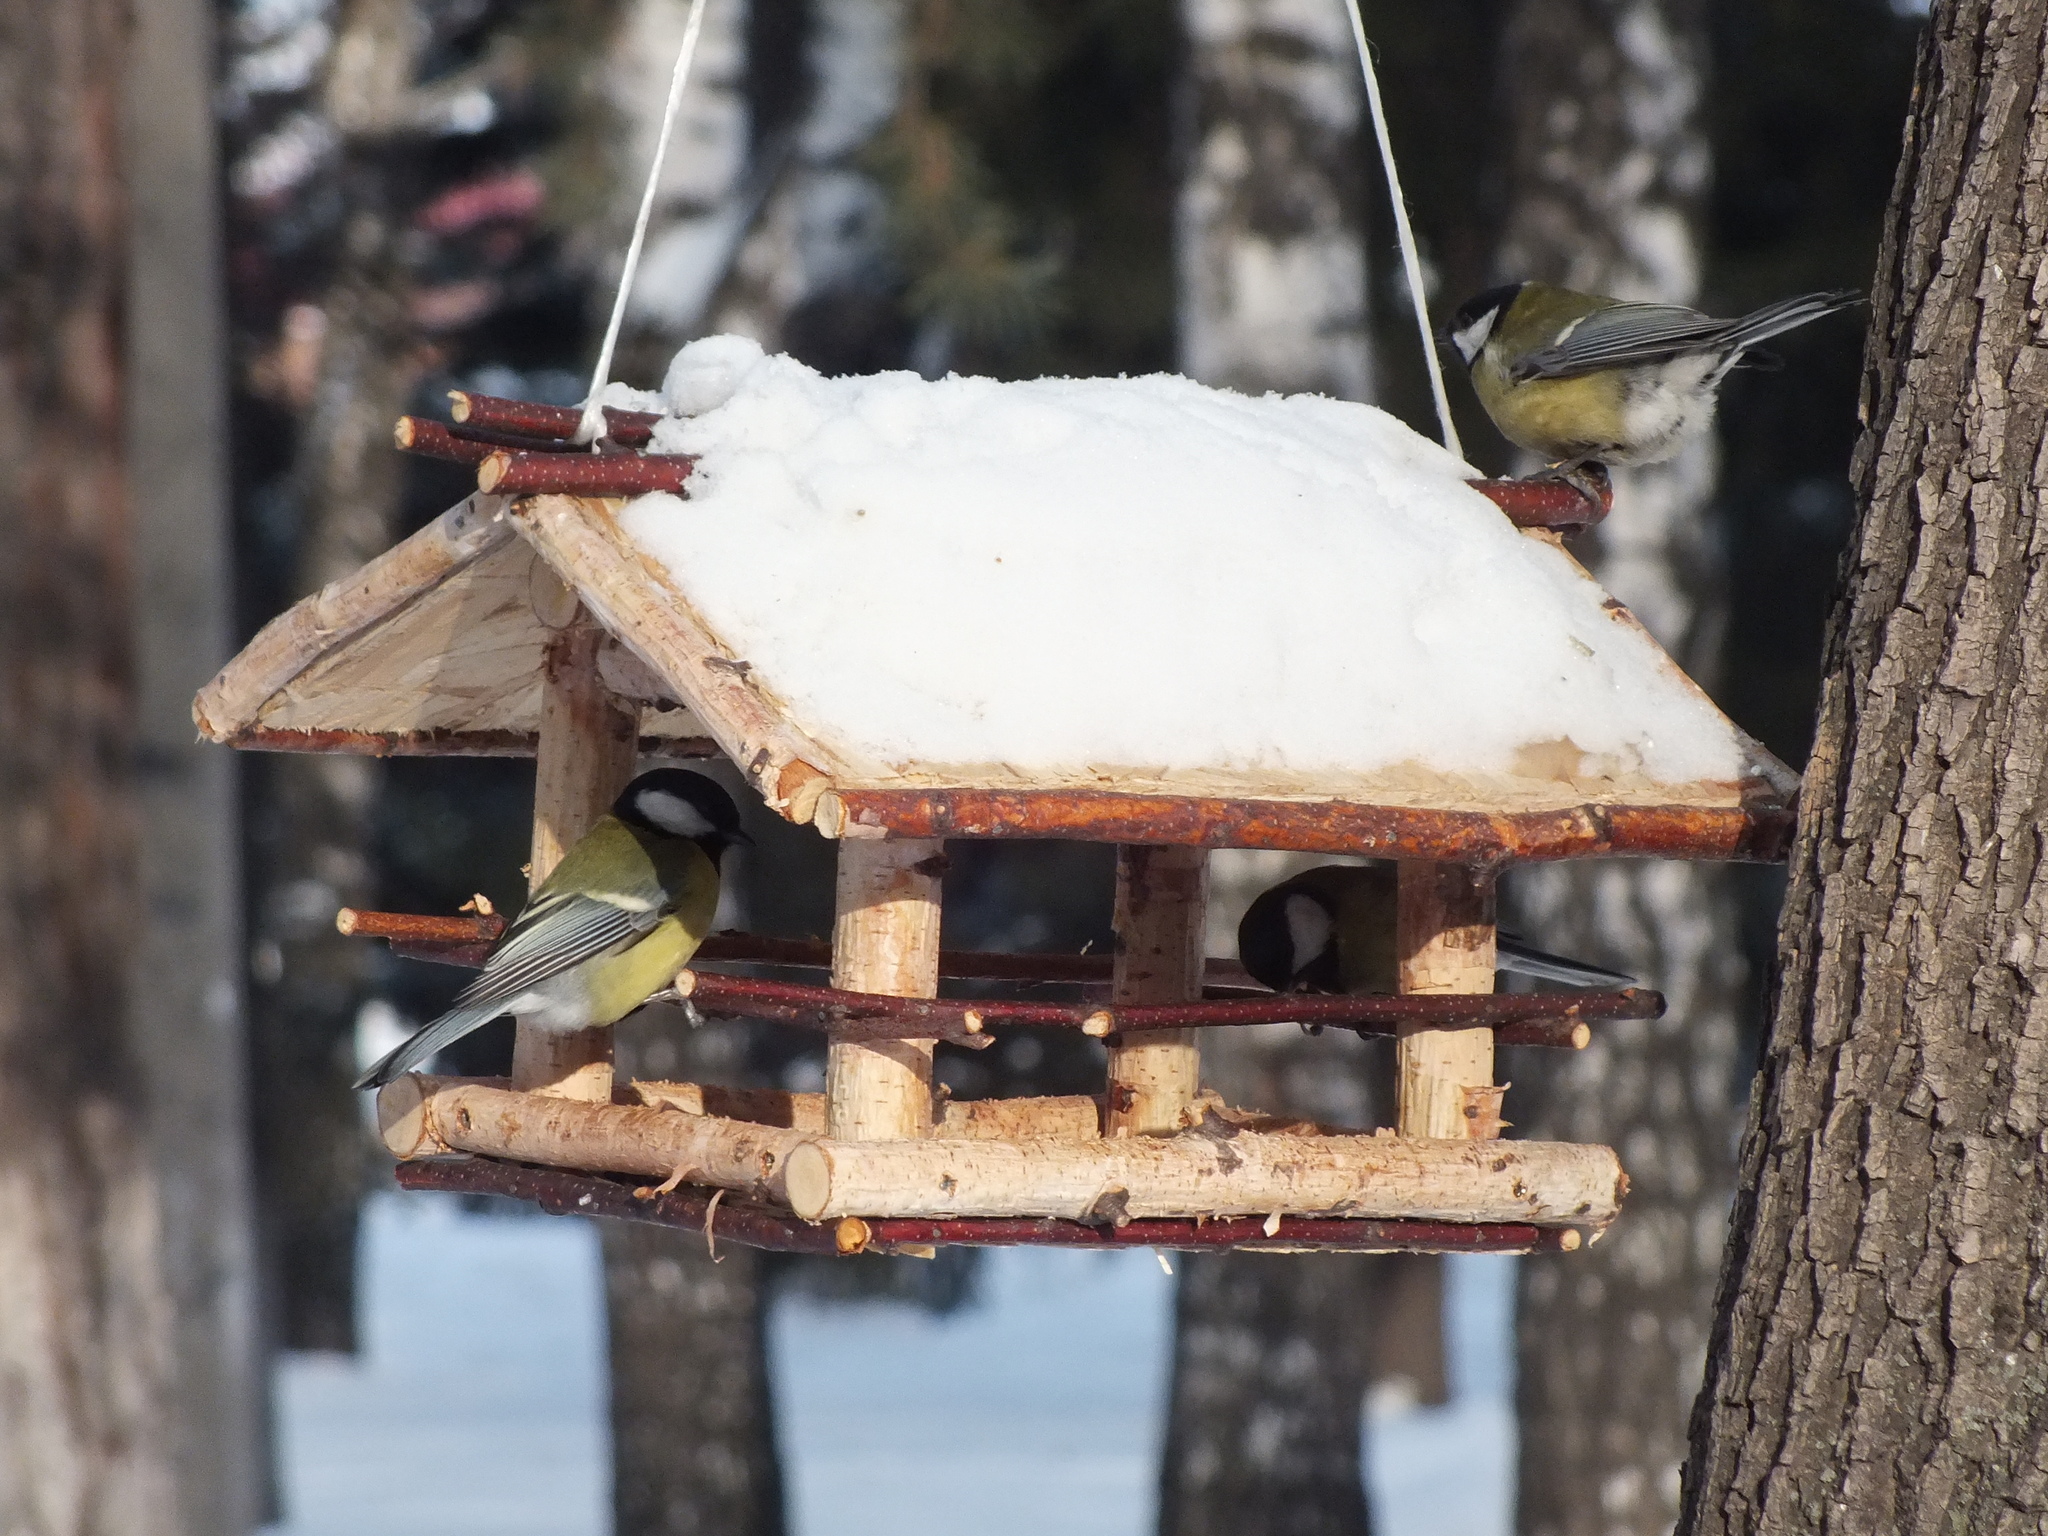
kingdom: Animalia
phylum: Chordata
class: Aves
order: Passeriformes
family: Paridae
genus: Parus
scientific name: Parus major
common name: Great tit
